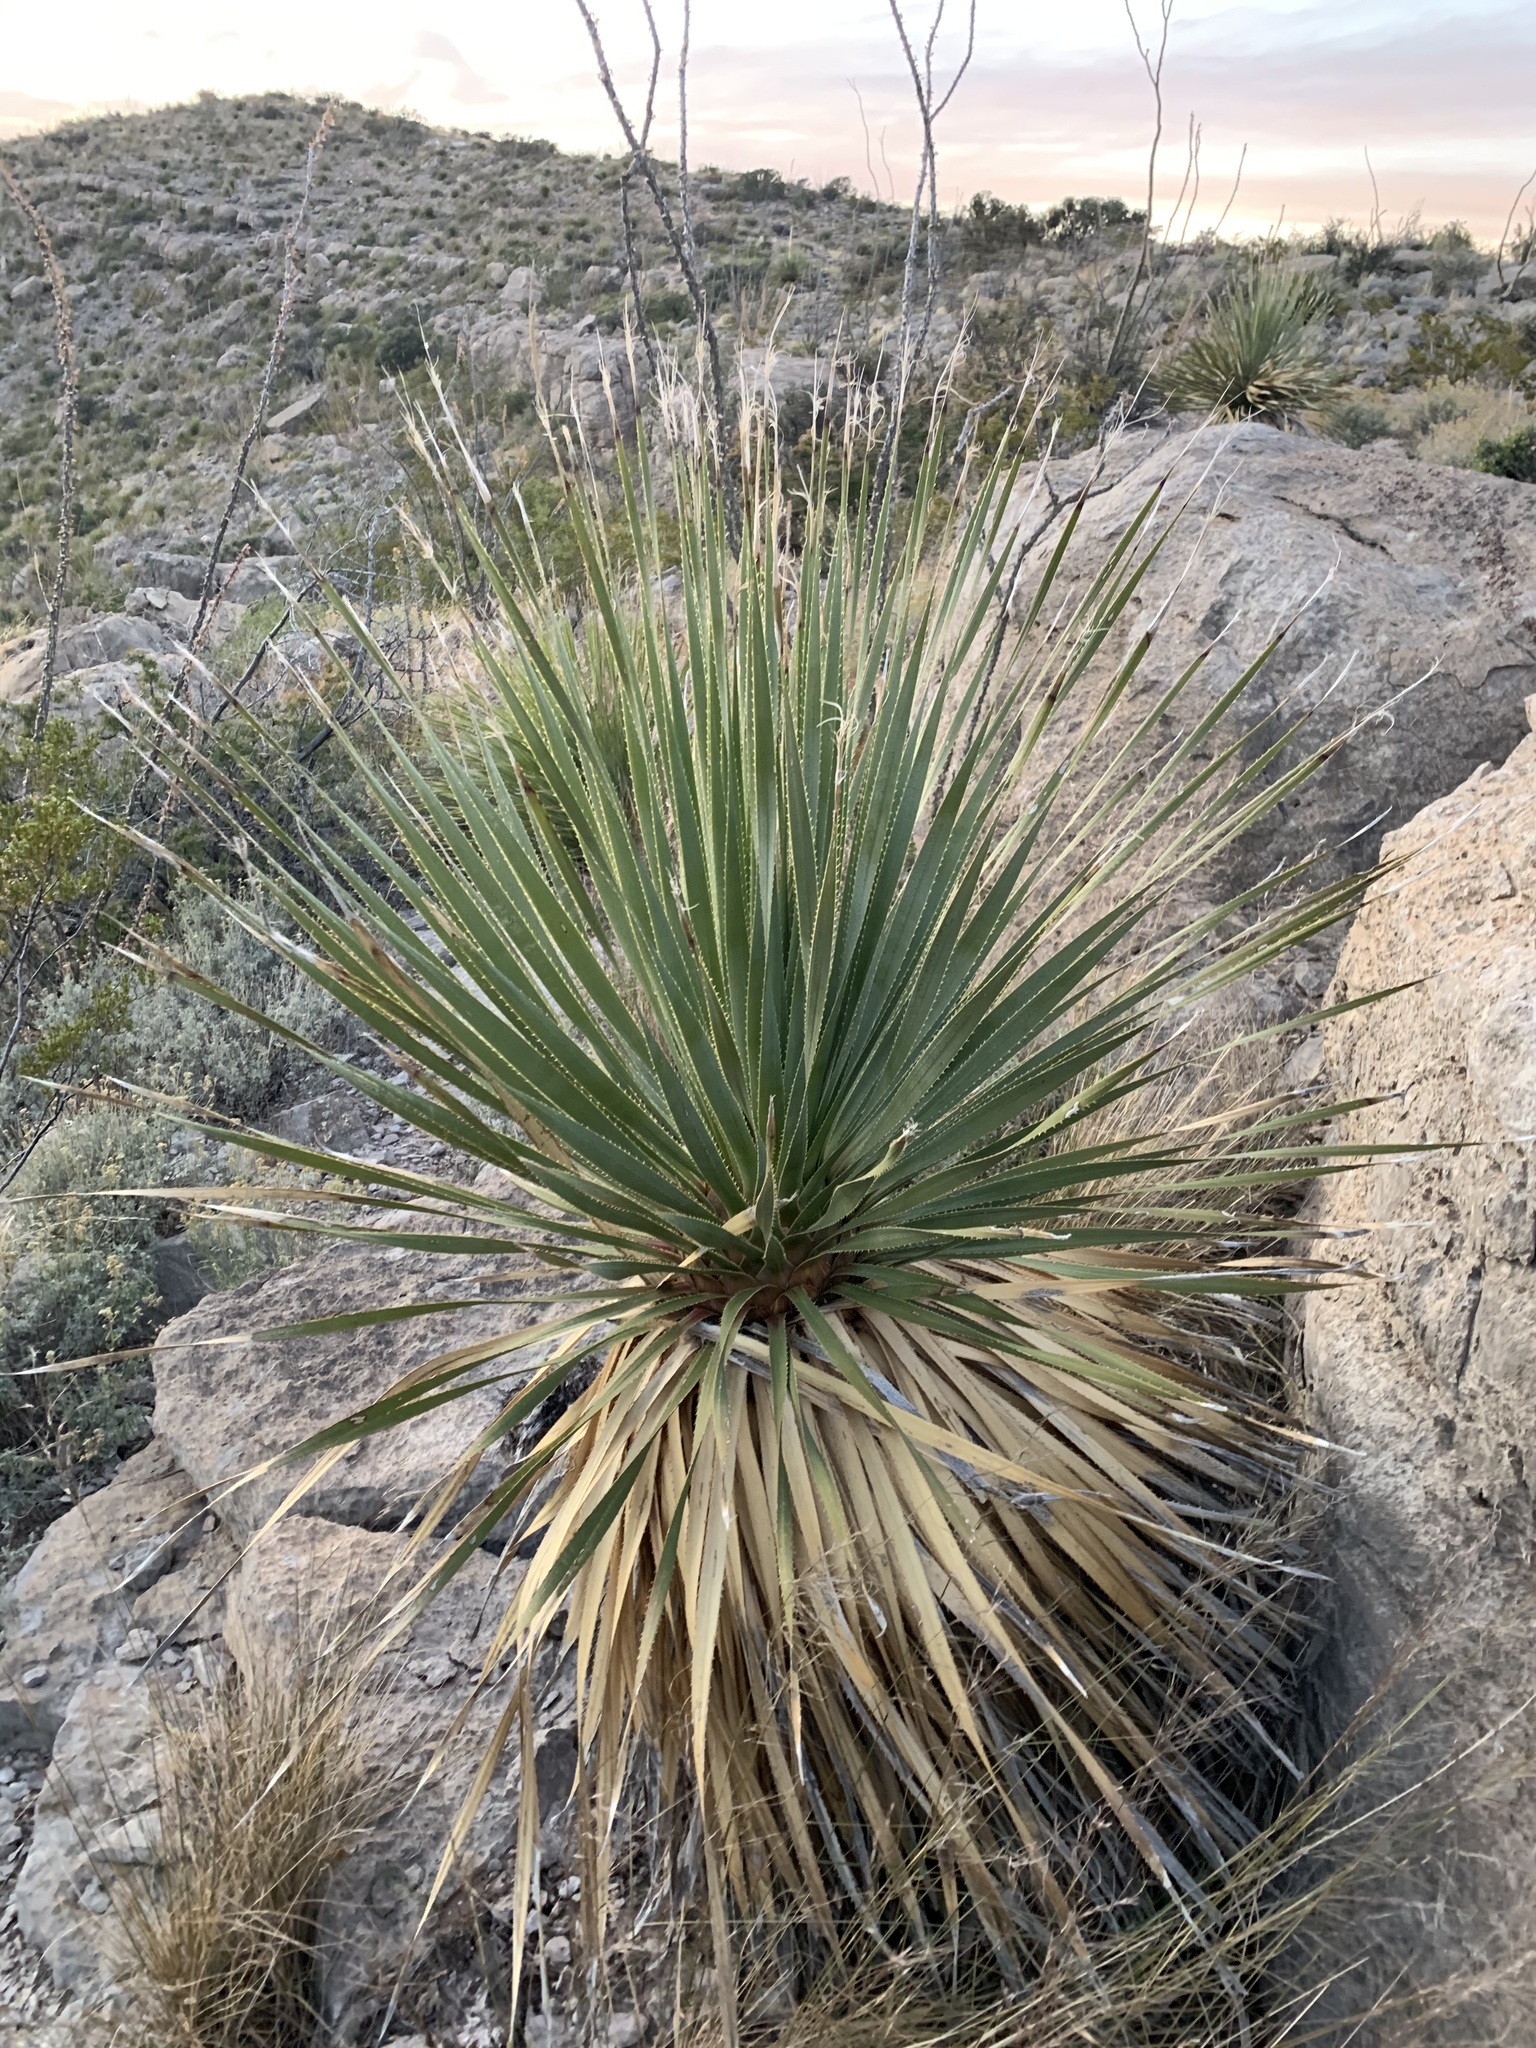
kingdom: Plantae
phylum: Tracheophyta
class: Liliopsida
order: Asparagales
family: Asparagaceae
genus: Dasylirion
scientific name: Dasylirion wheeleri
